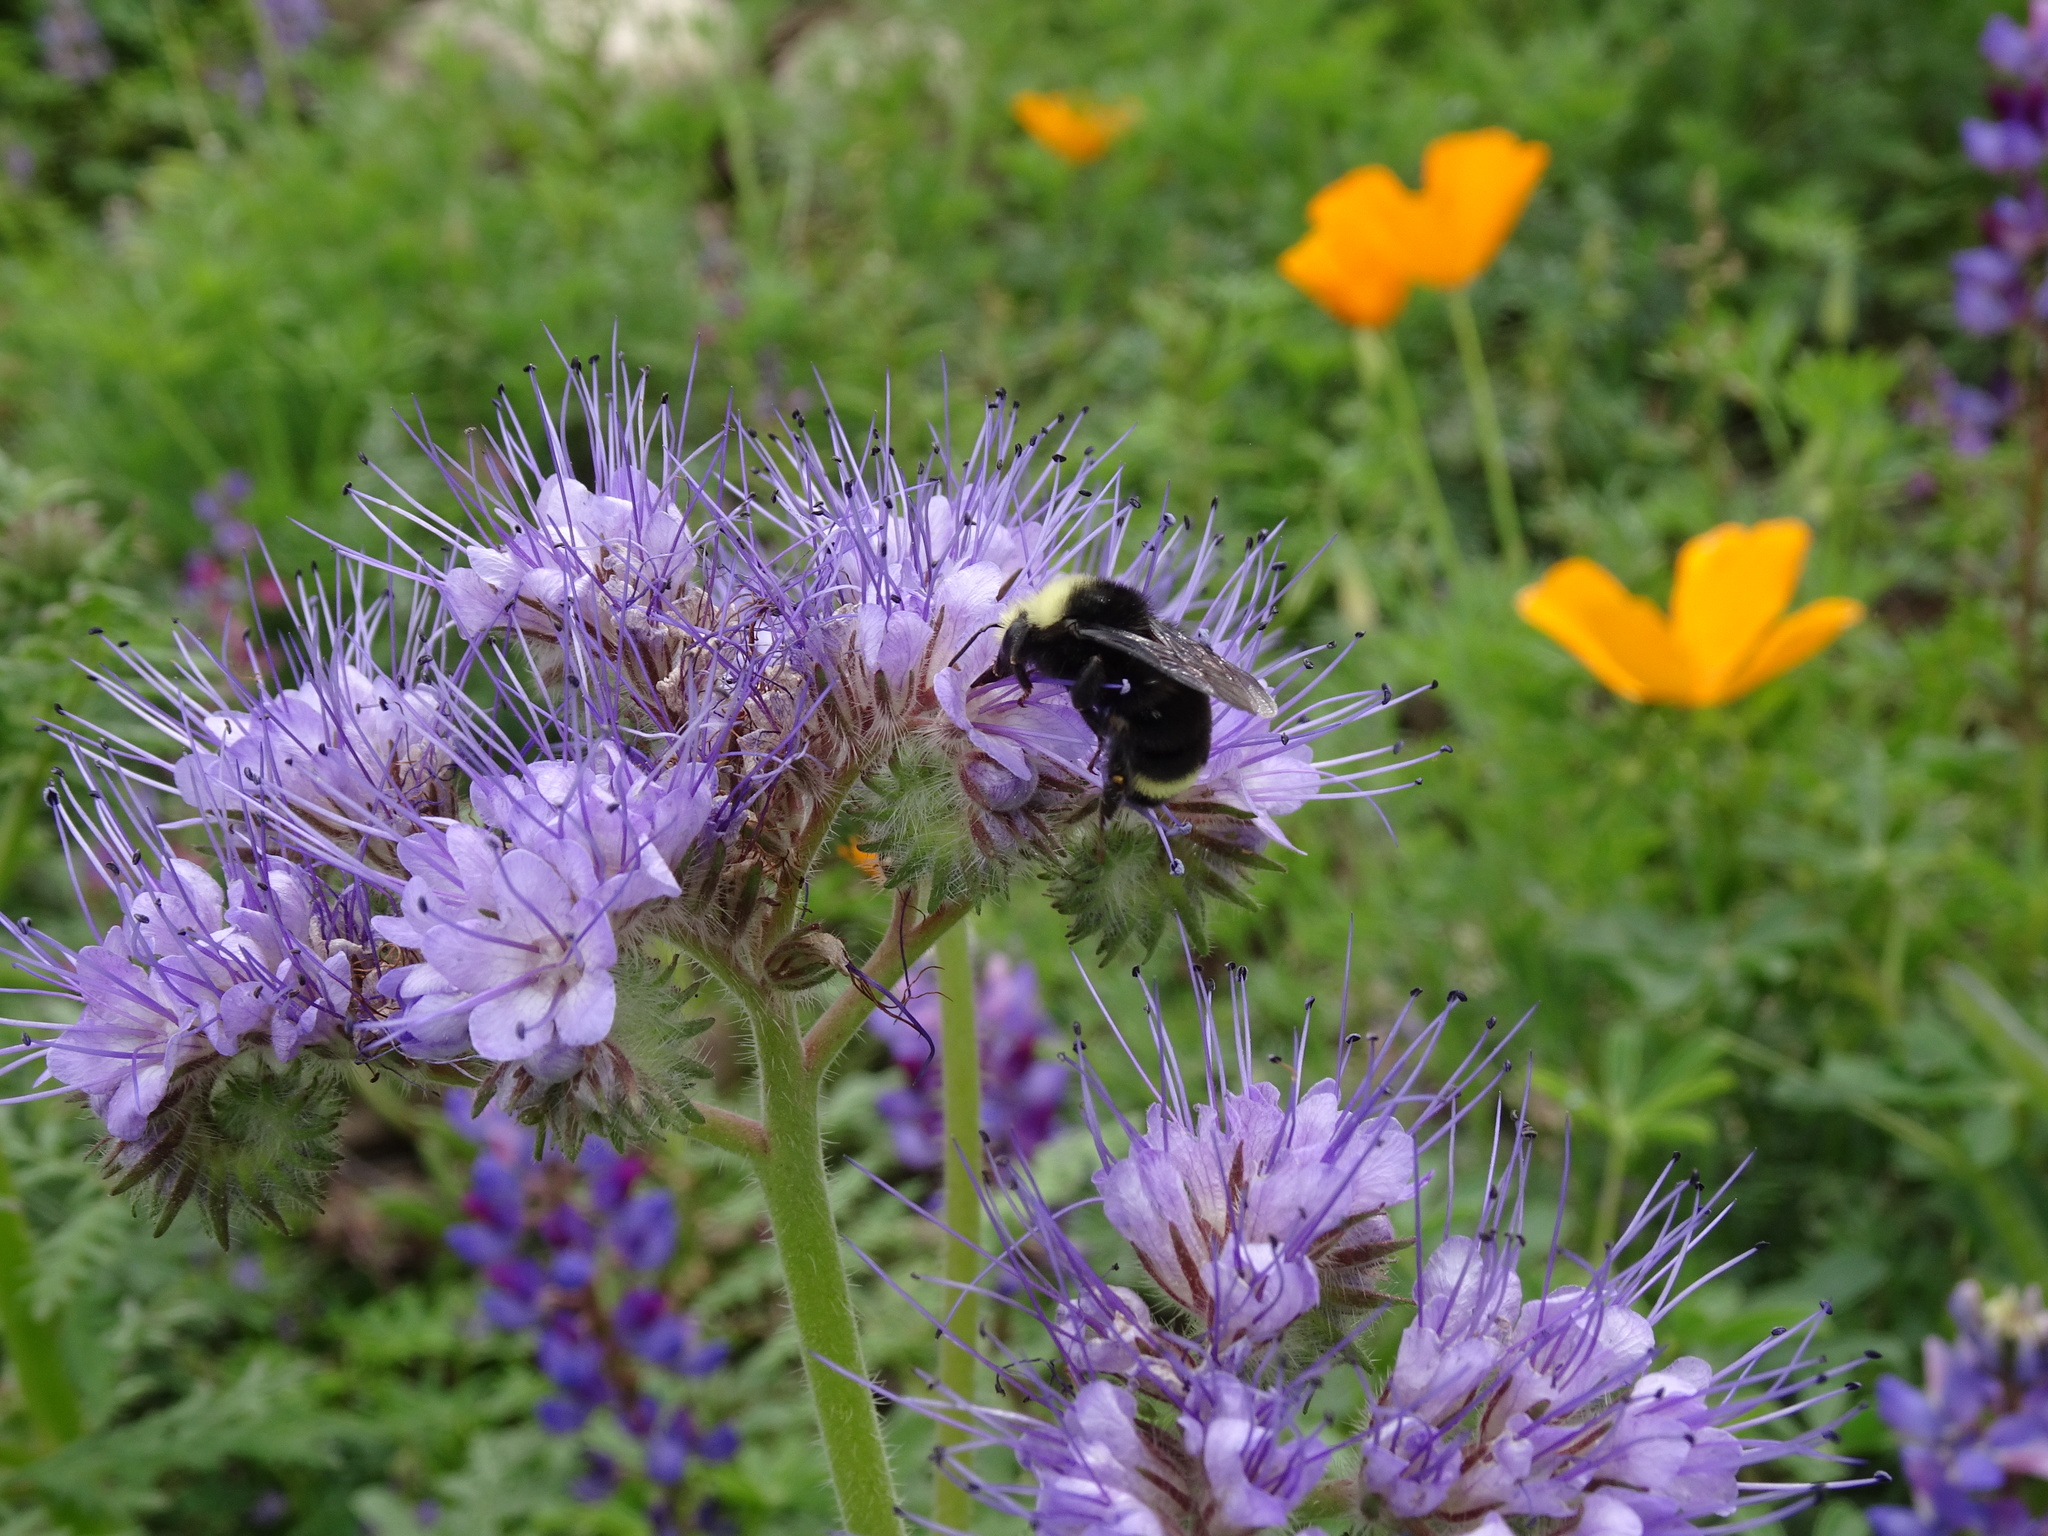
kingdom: Animalia
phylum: Arthropoda
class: Insecta
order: Hymenoptera
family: Apidae
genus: Bombus
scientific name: Bombus vosnesenskii
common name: Vosnesensky bumble bee
